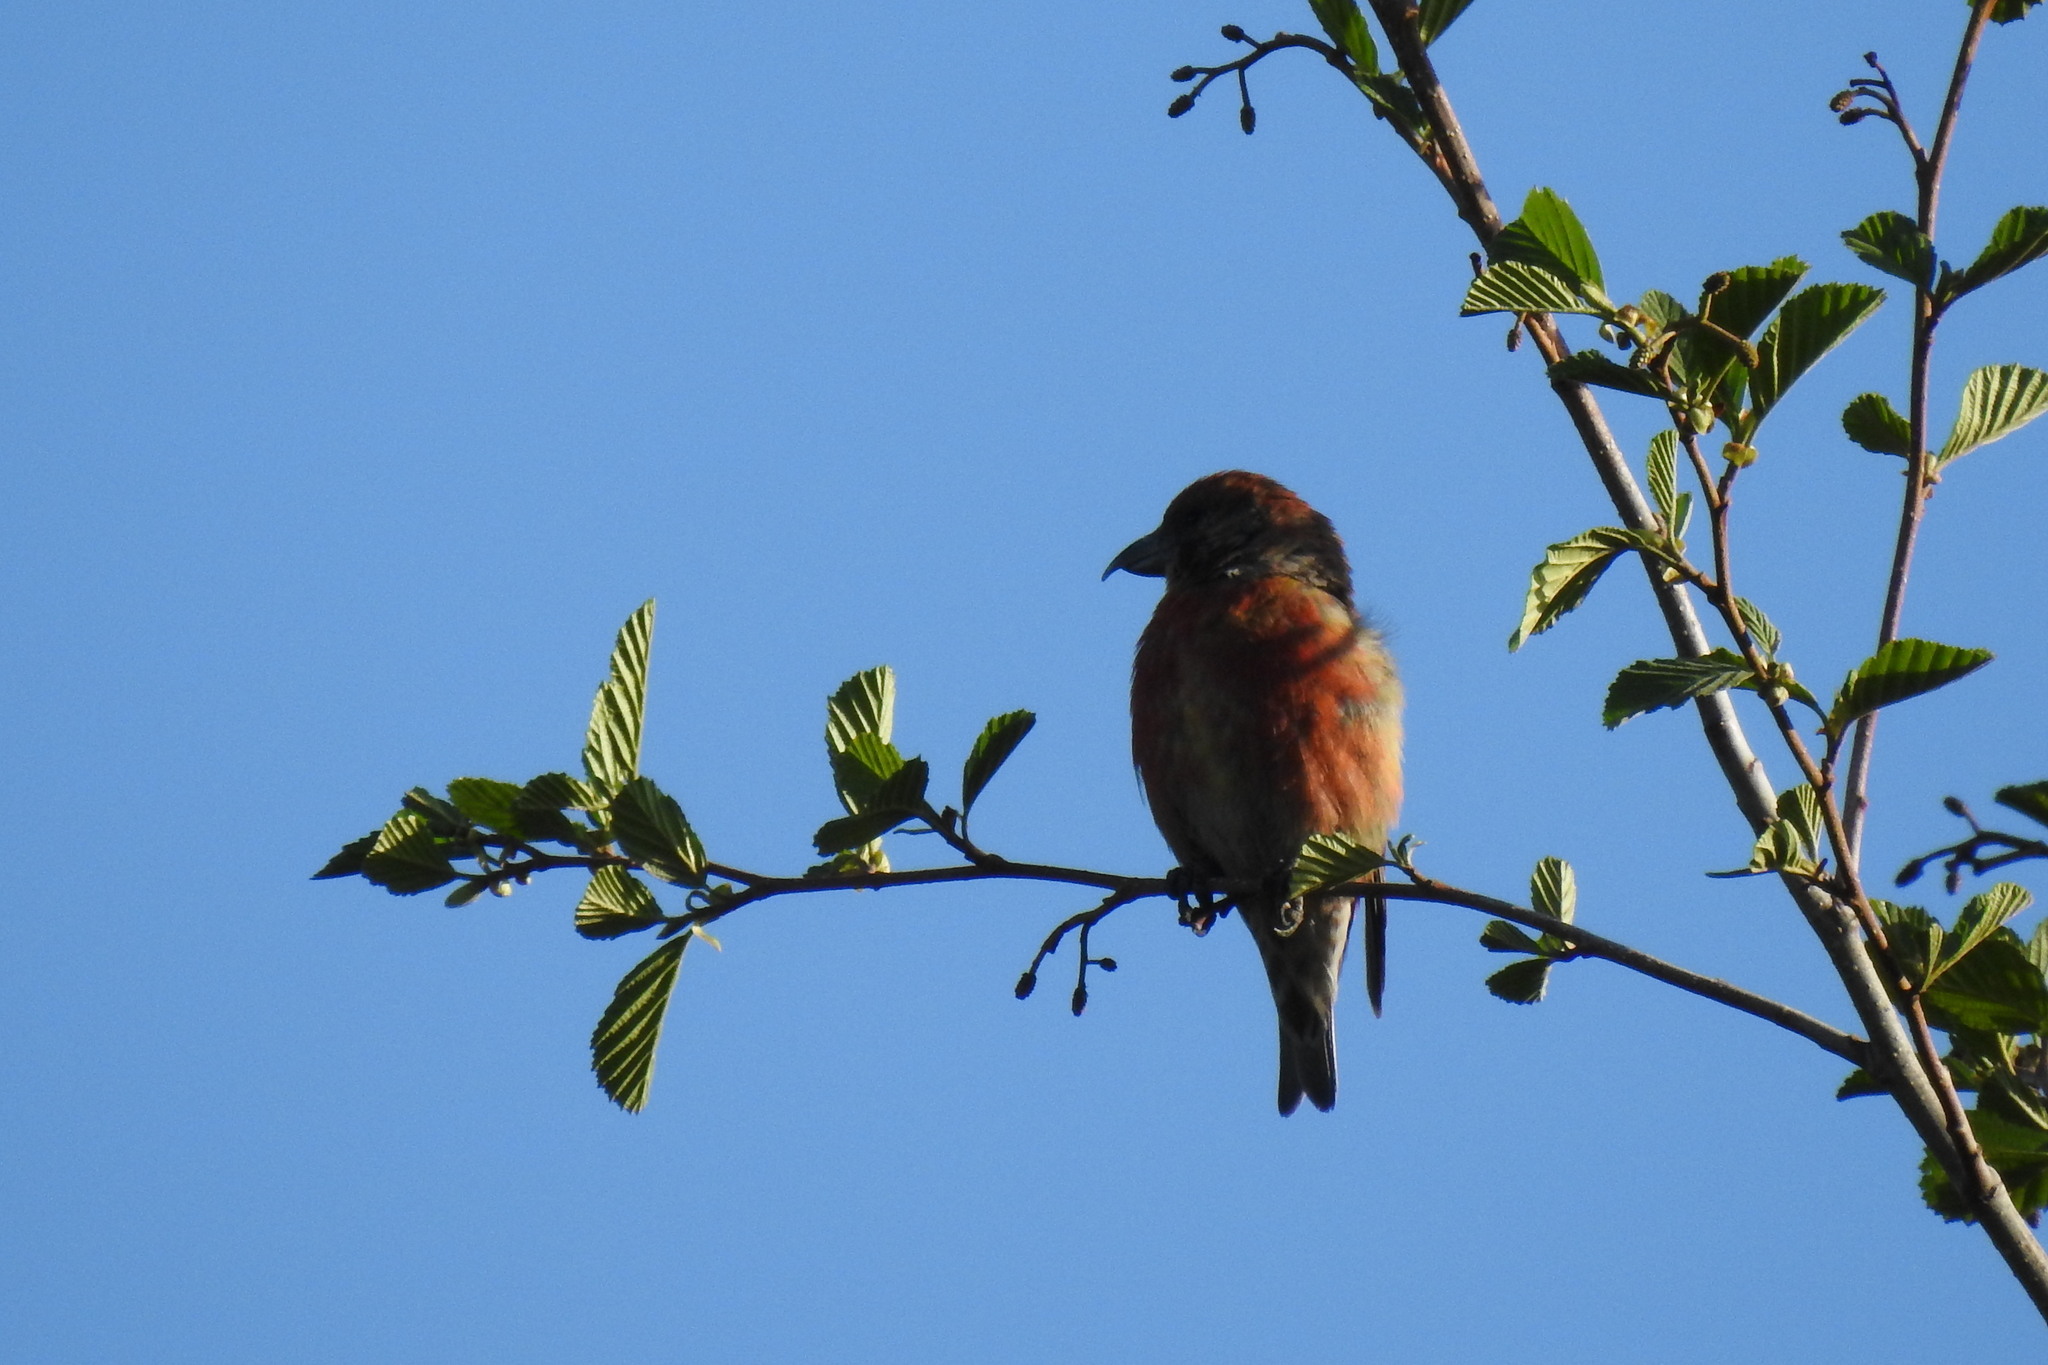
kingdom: Animalia
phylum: Chordata
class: Aves
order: Passeriformes
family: Fringillidae
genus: Loxia
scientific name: Loxia curvirostra
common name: Red crossbill
